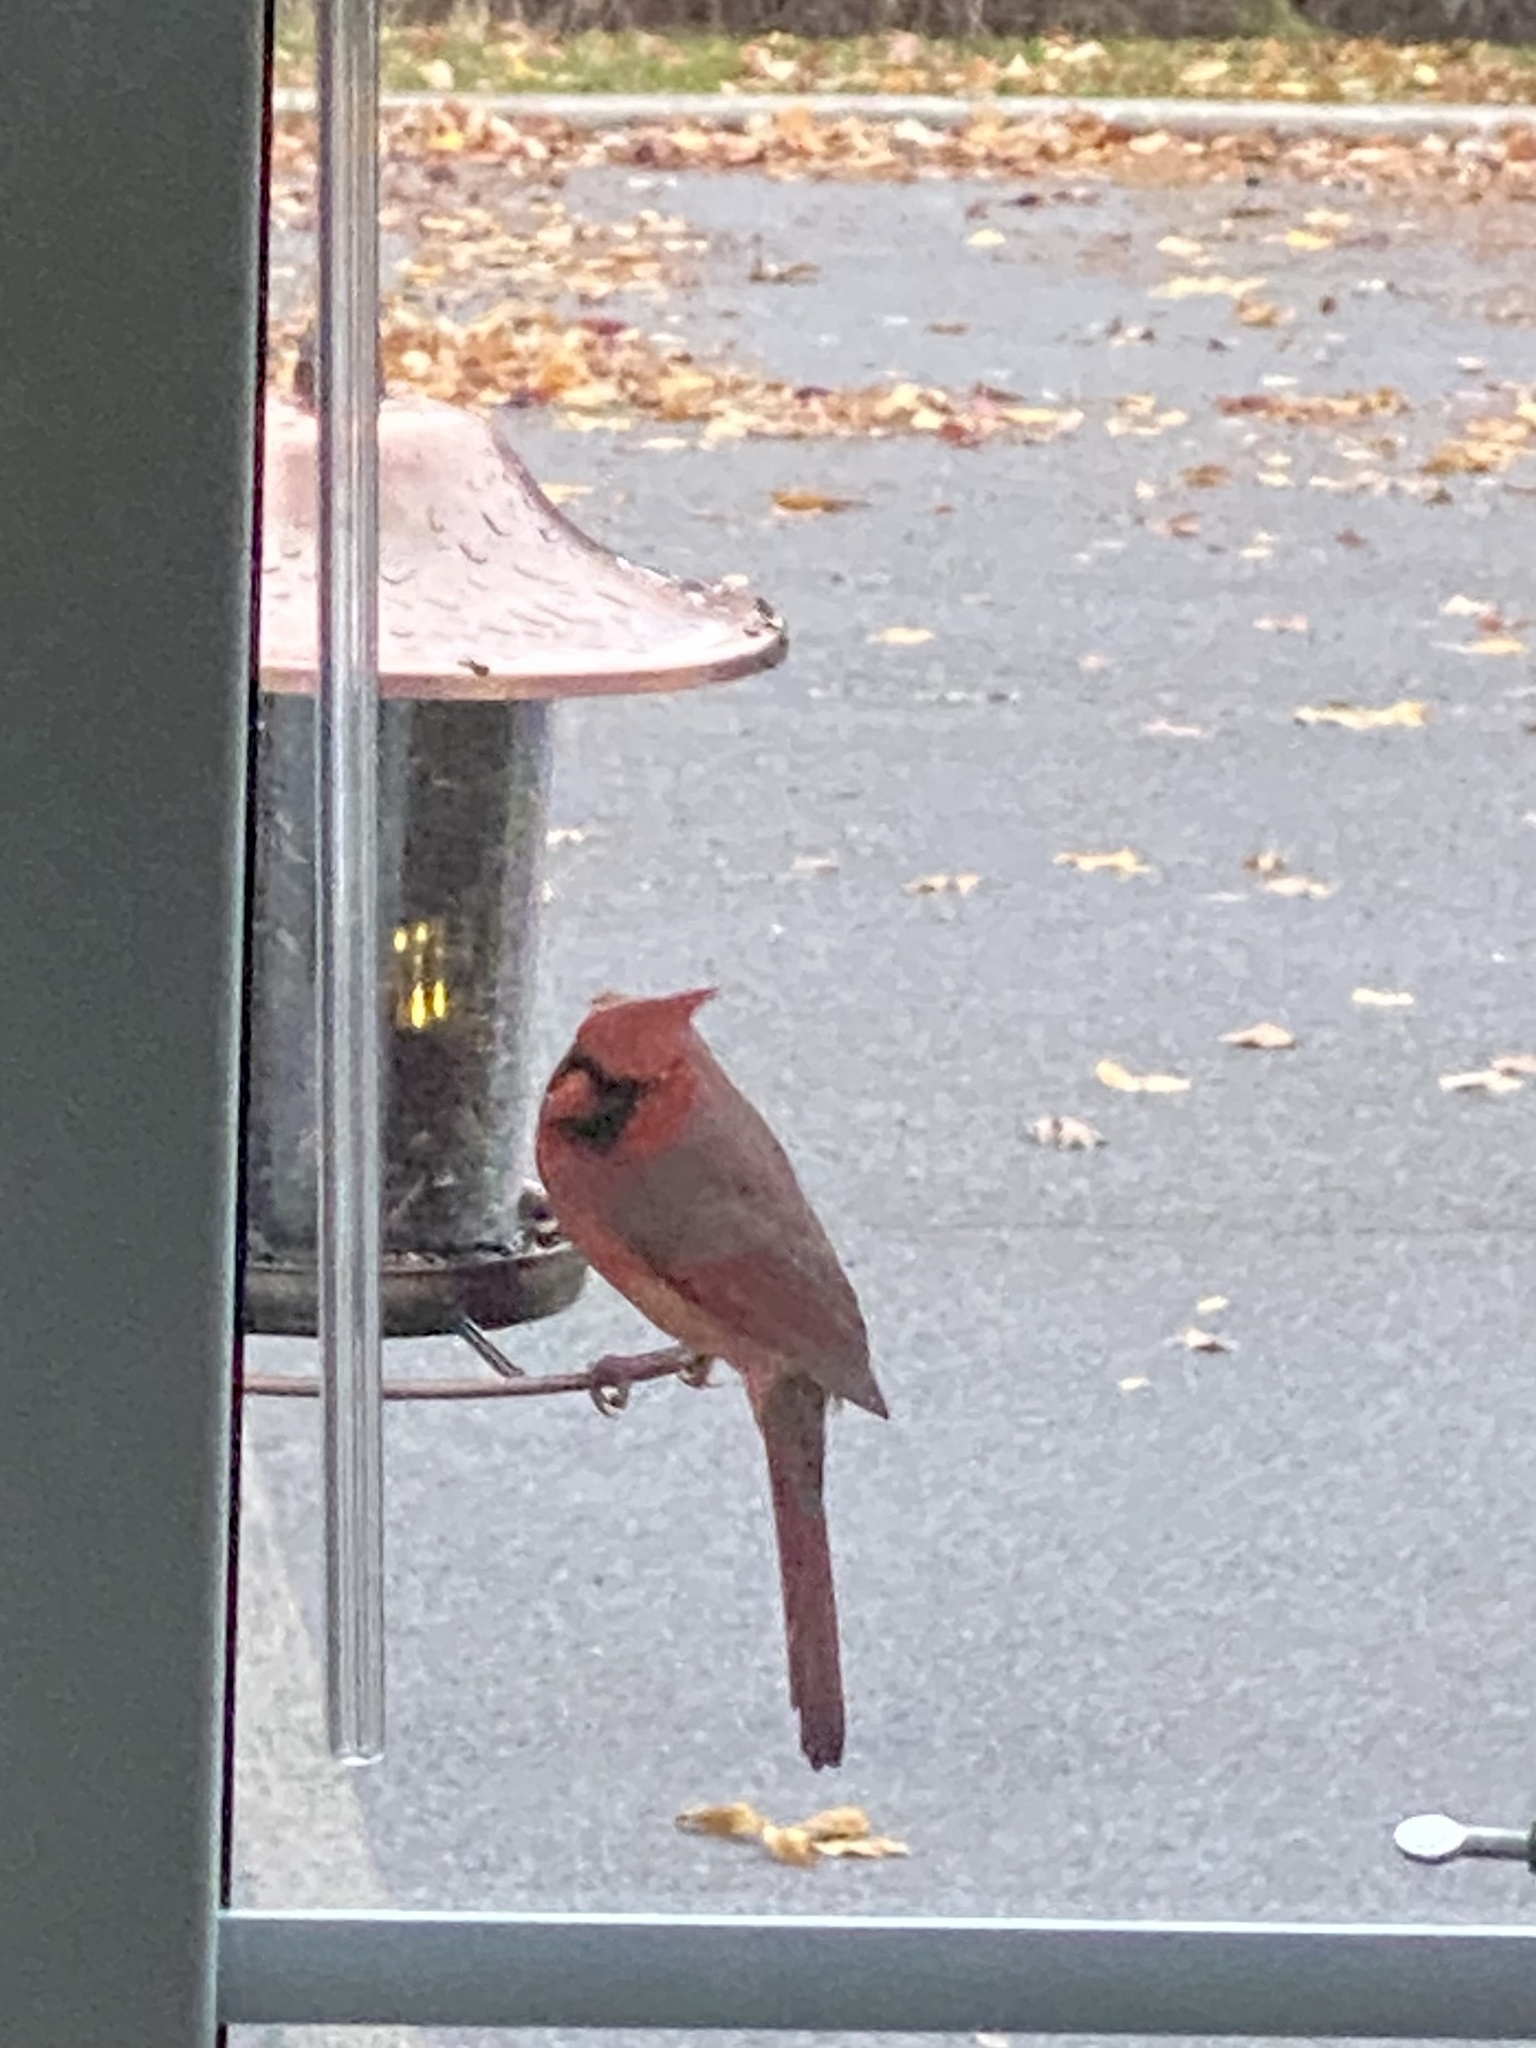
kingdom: Animalia
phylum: Chordata
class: Aves
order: Passeriformes
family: Cardinalidae
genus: Cardinalis
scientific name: Cardinalis cardinalis
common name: Northern cardinal
